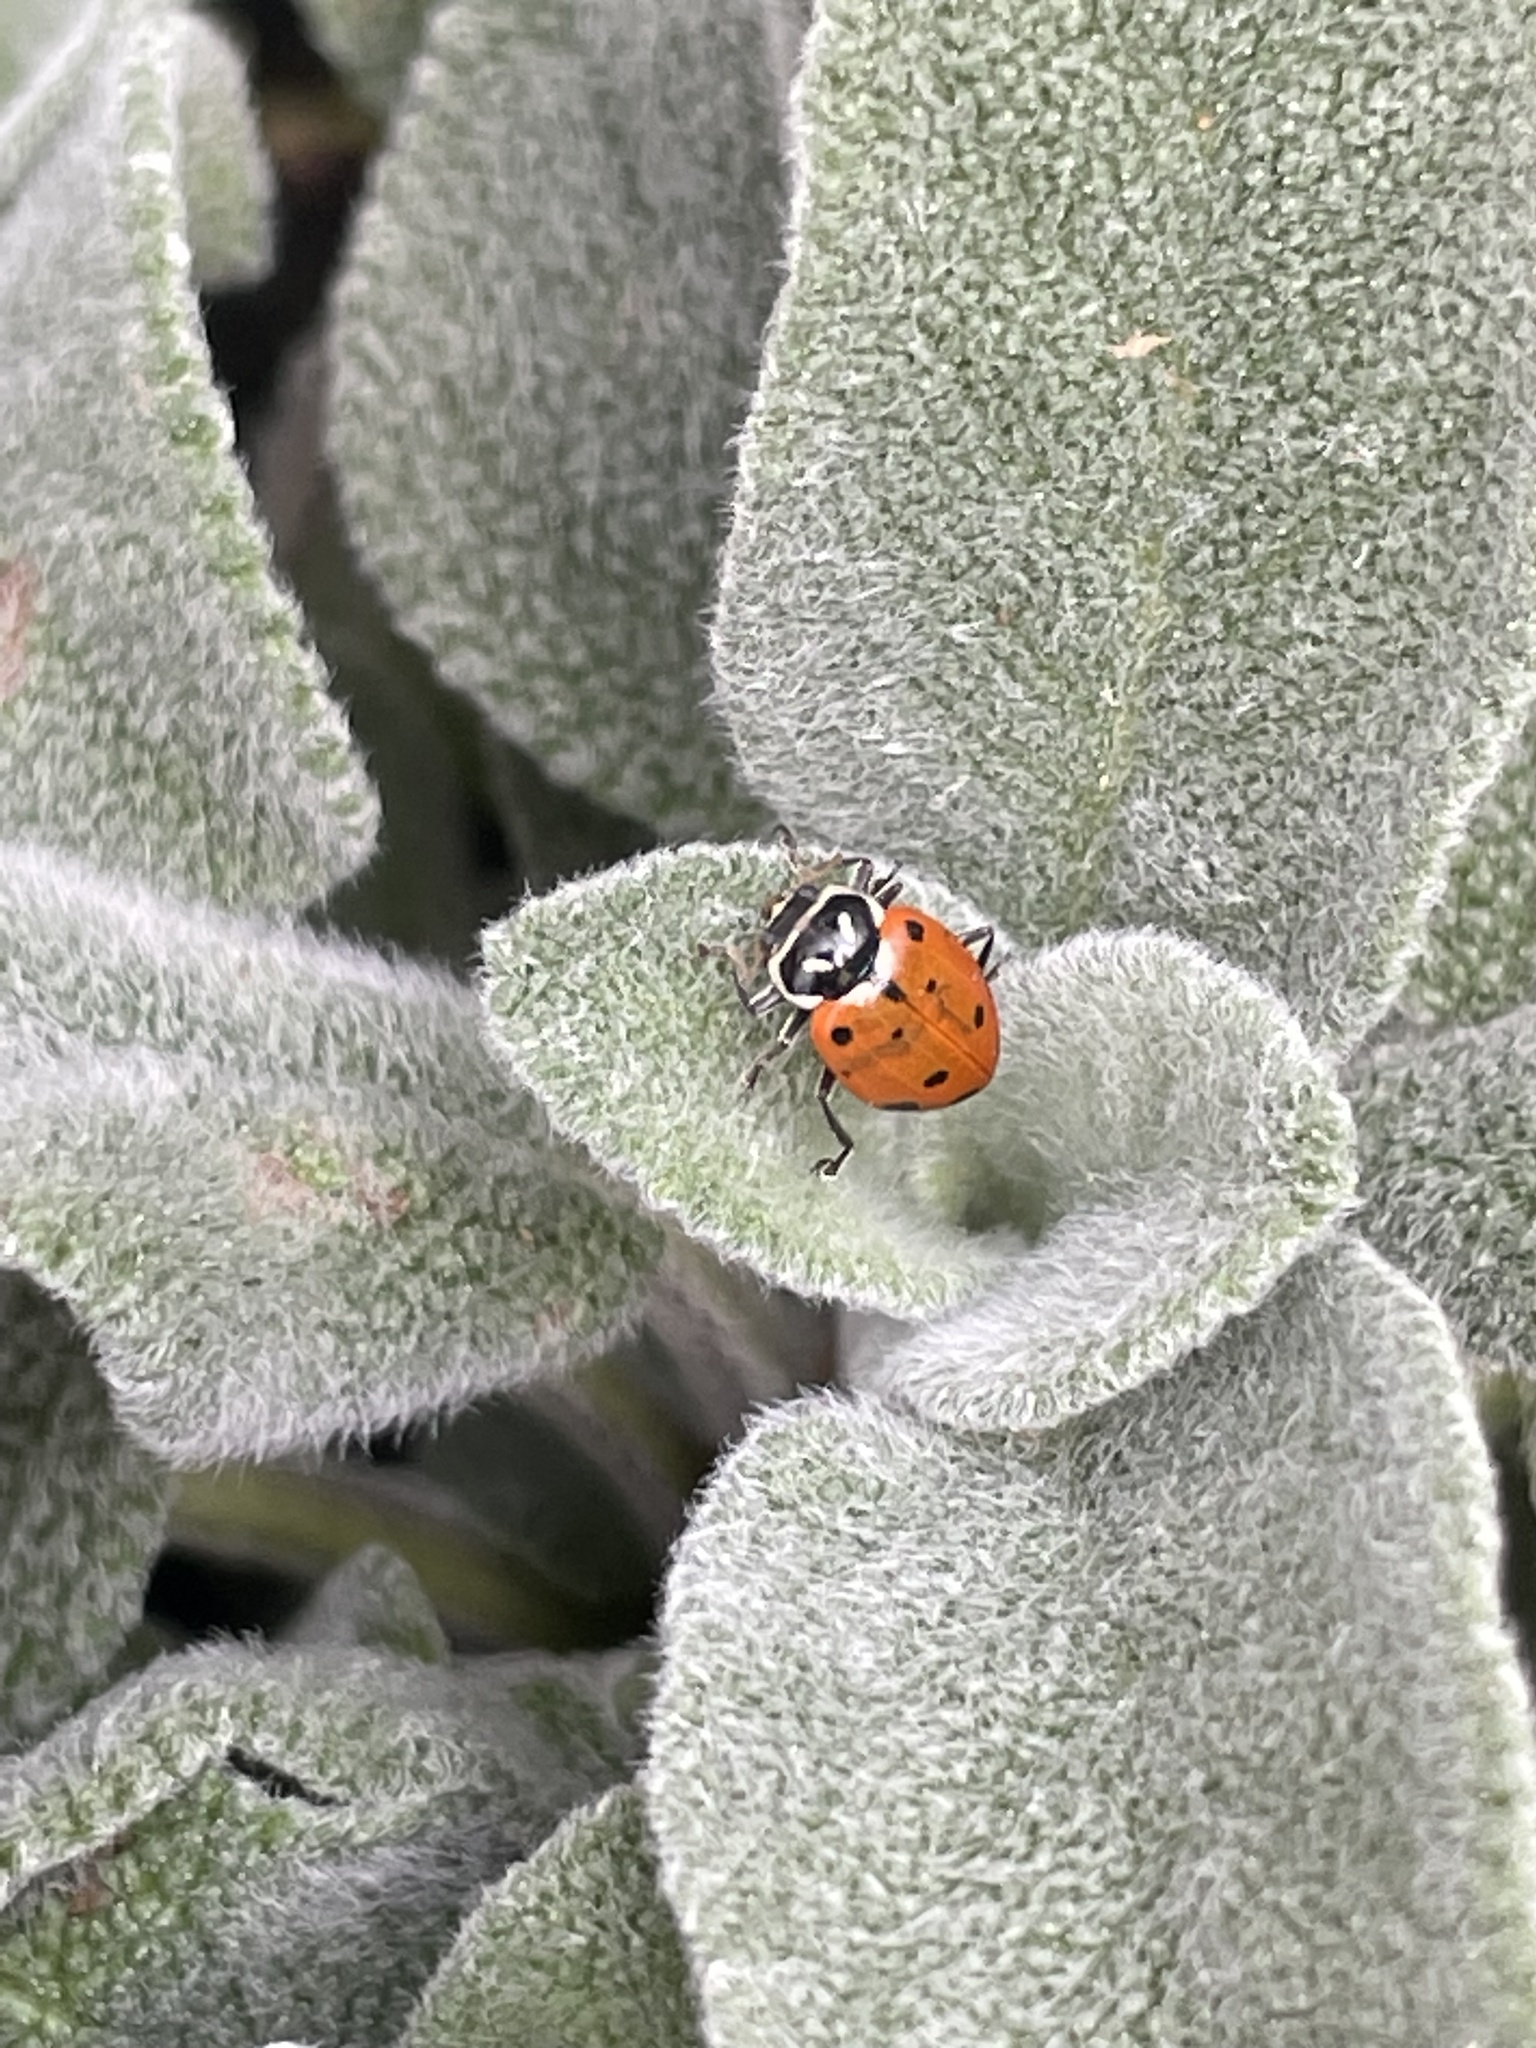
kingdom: Animalia
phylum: Arthropoda
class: Insecta
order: Coleoptera
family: Coccinellidae
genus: Hippodamia
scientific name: Hippodamia convergens
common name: Convergent lady beetle
